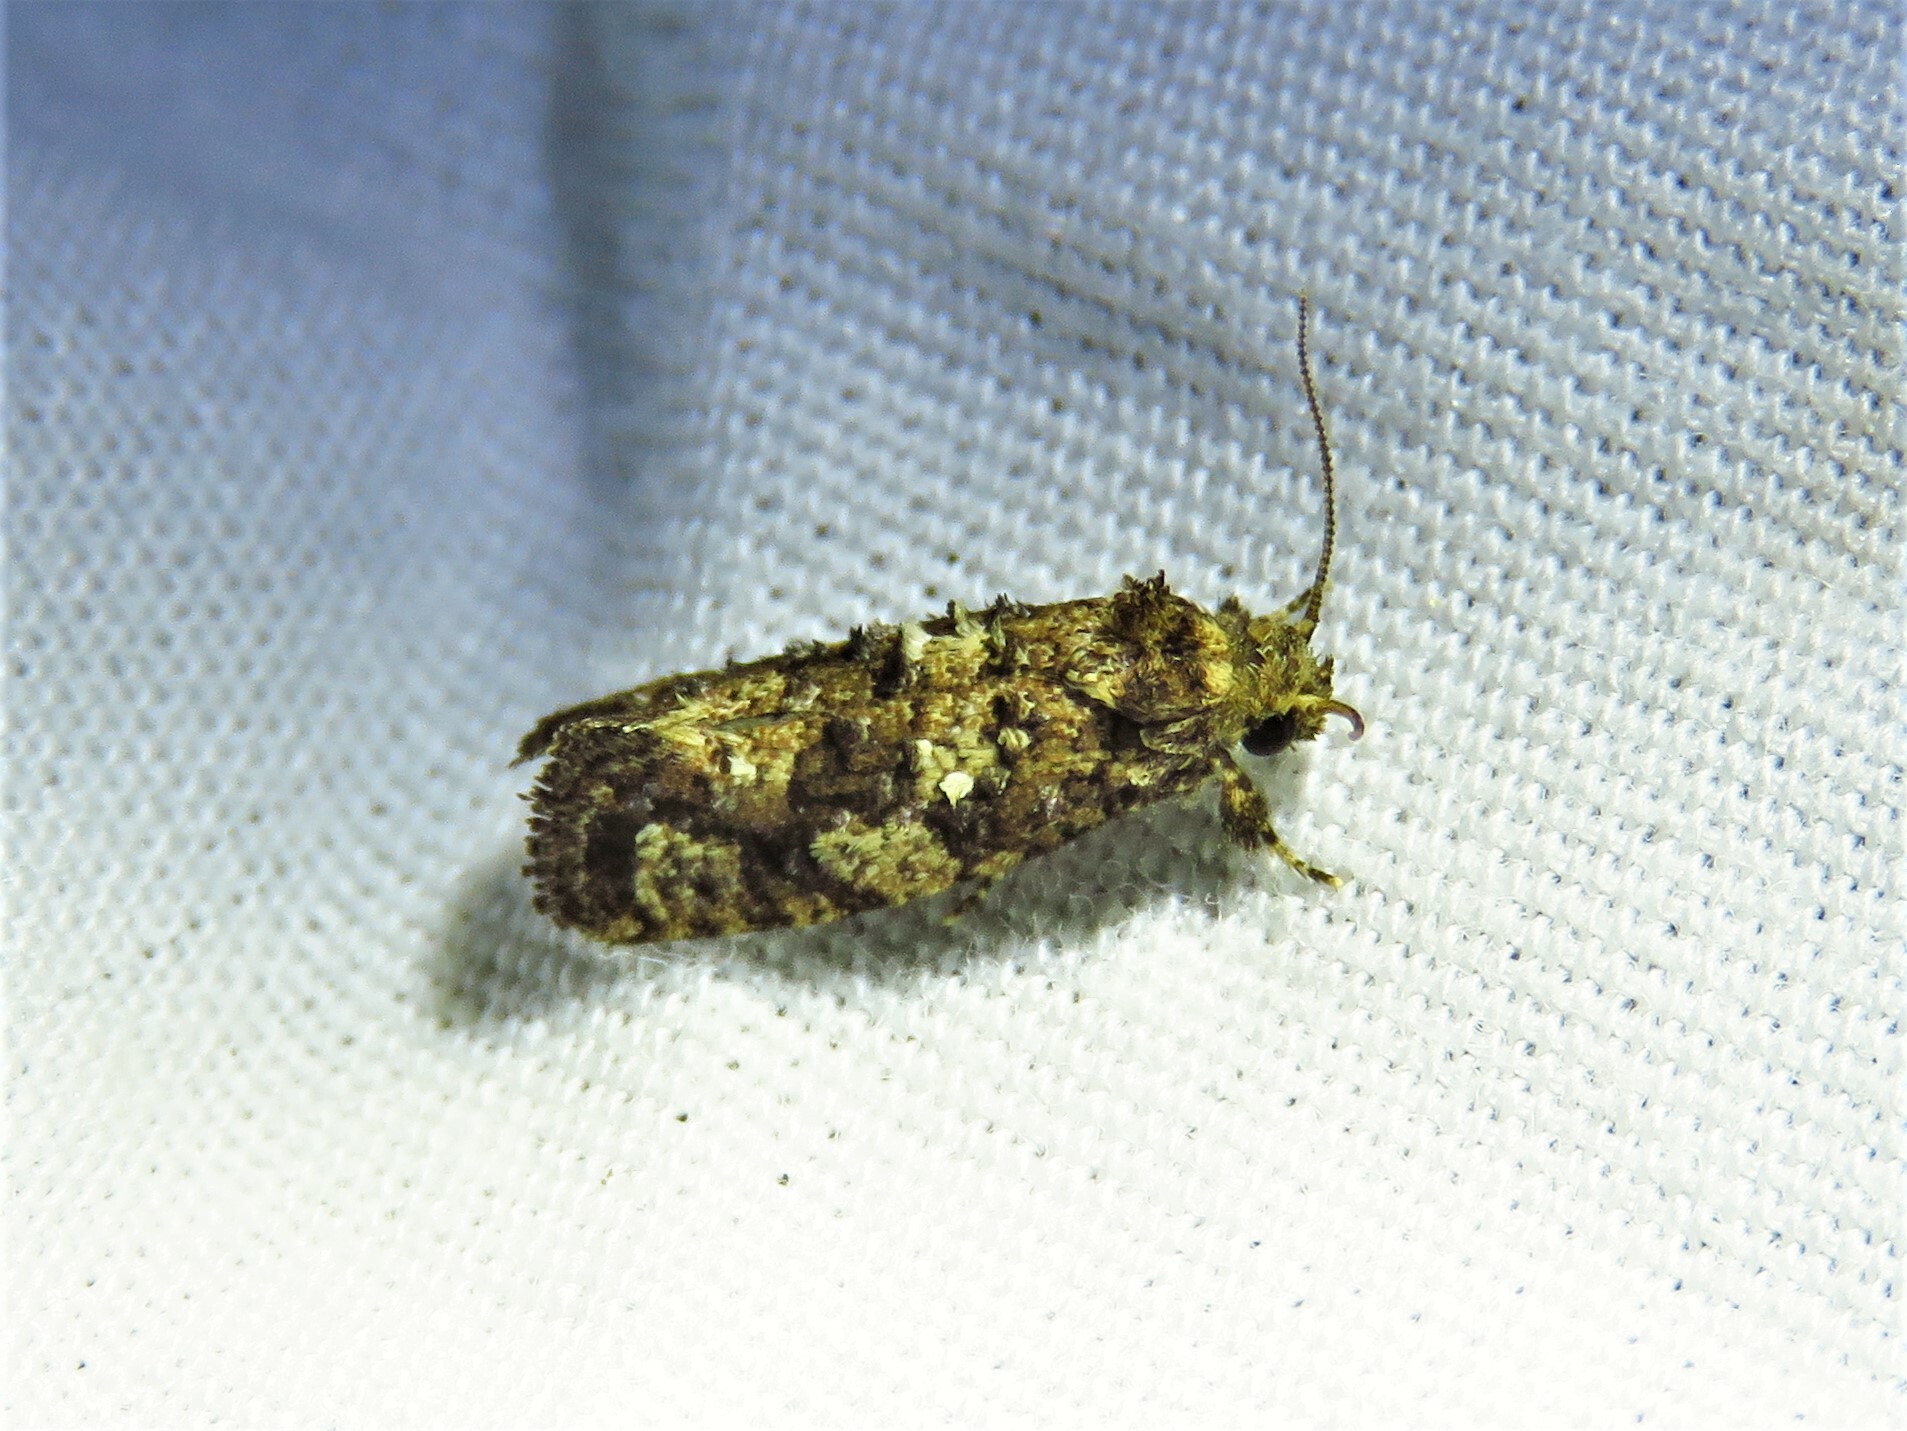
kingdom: Animalia
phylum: Arthropoda
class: Insecta
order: Lepidoptera
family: Tineidae
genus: Acrolophus
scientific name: Acrolophus cressoni
